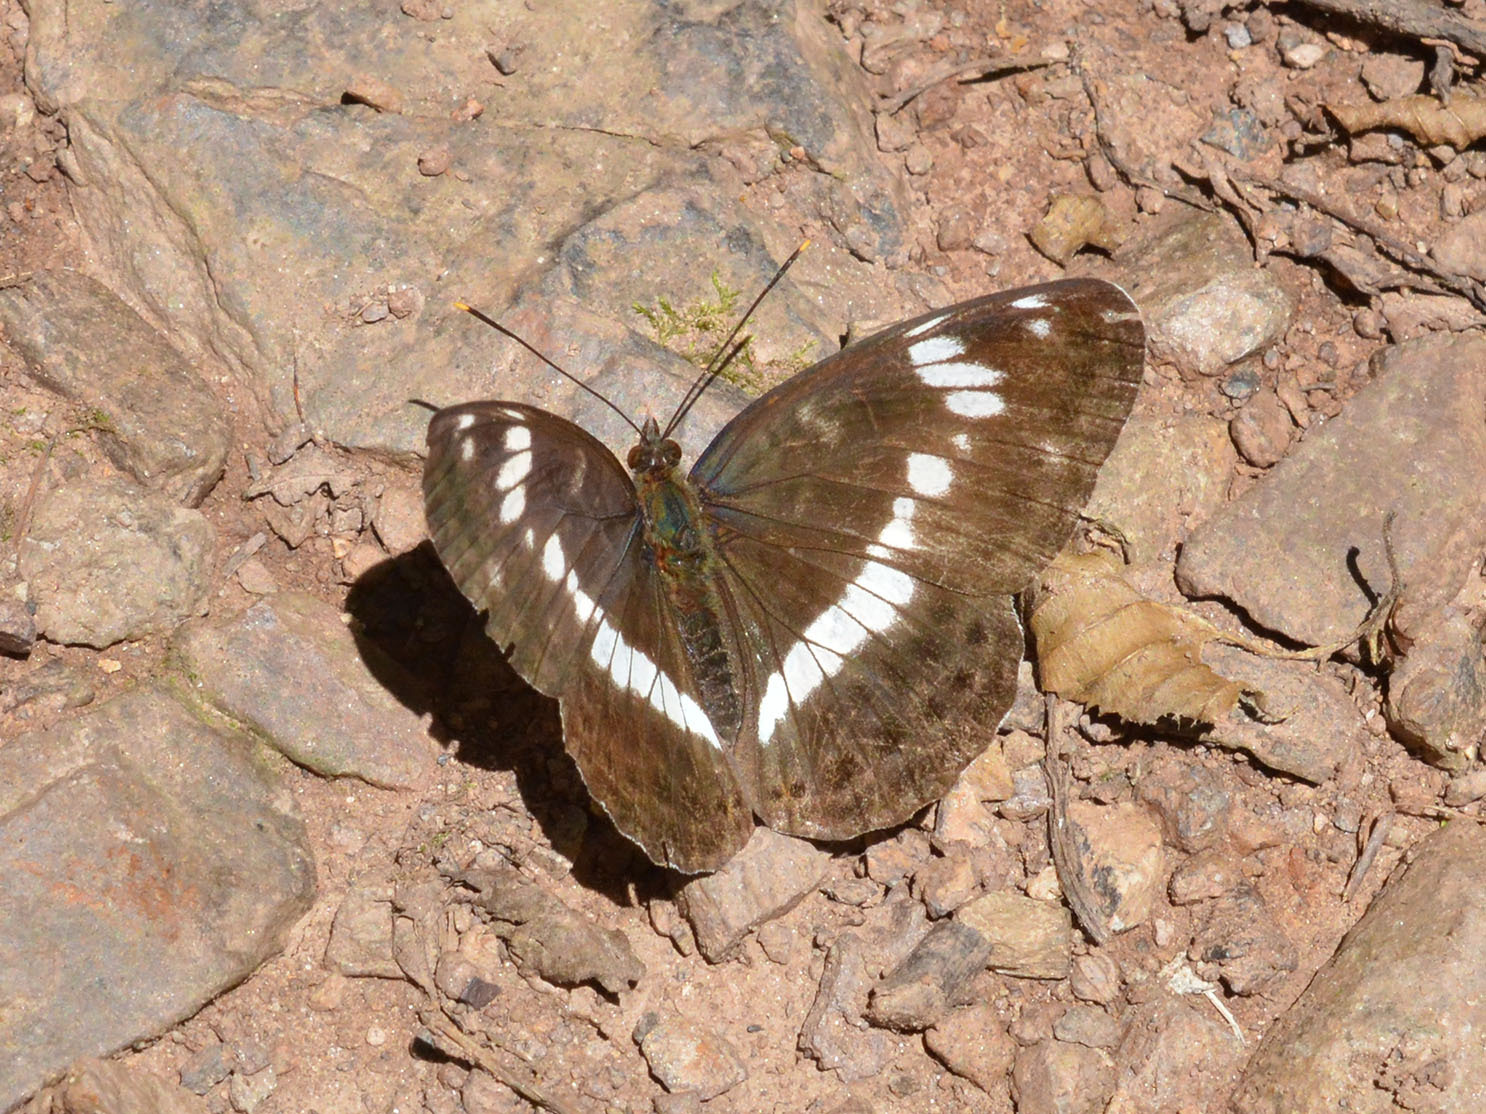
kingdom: Animalia
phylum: Arthropoda
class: Insecta
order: Lepidoptera
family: Nymphalidae
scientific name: Nymphalidae
